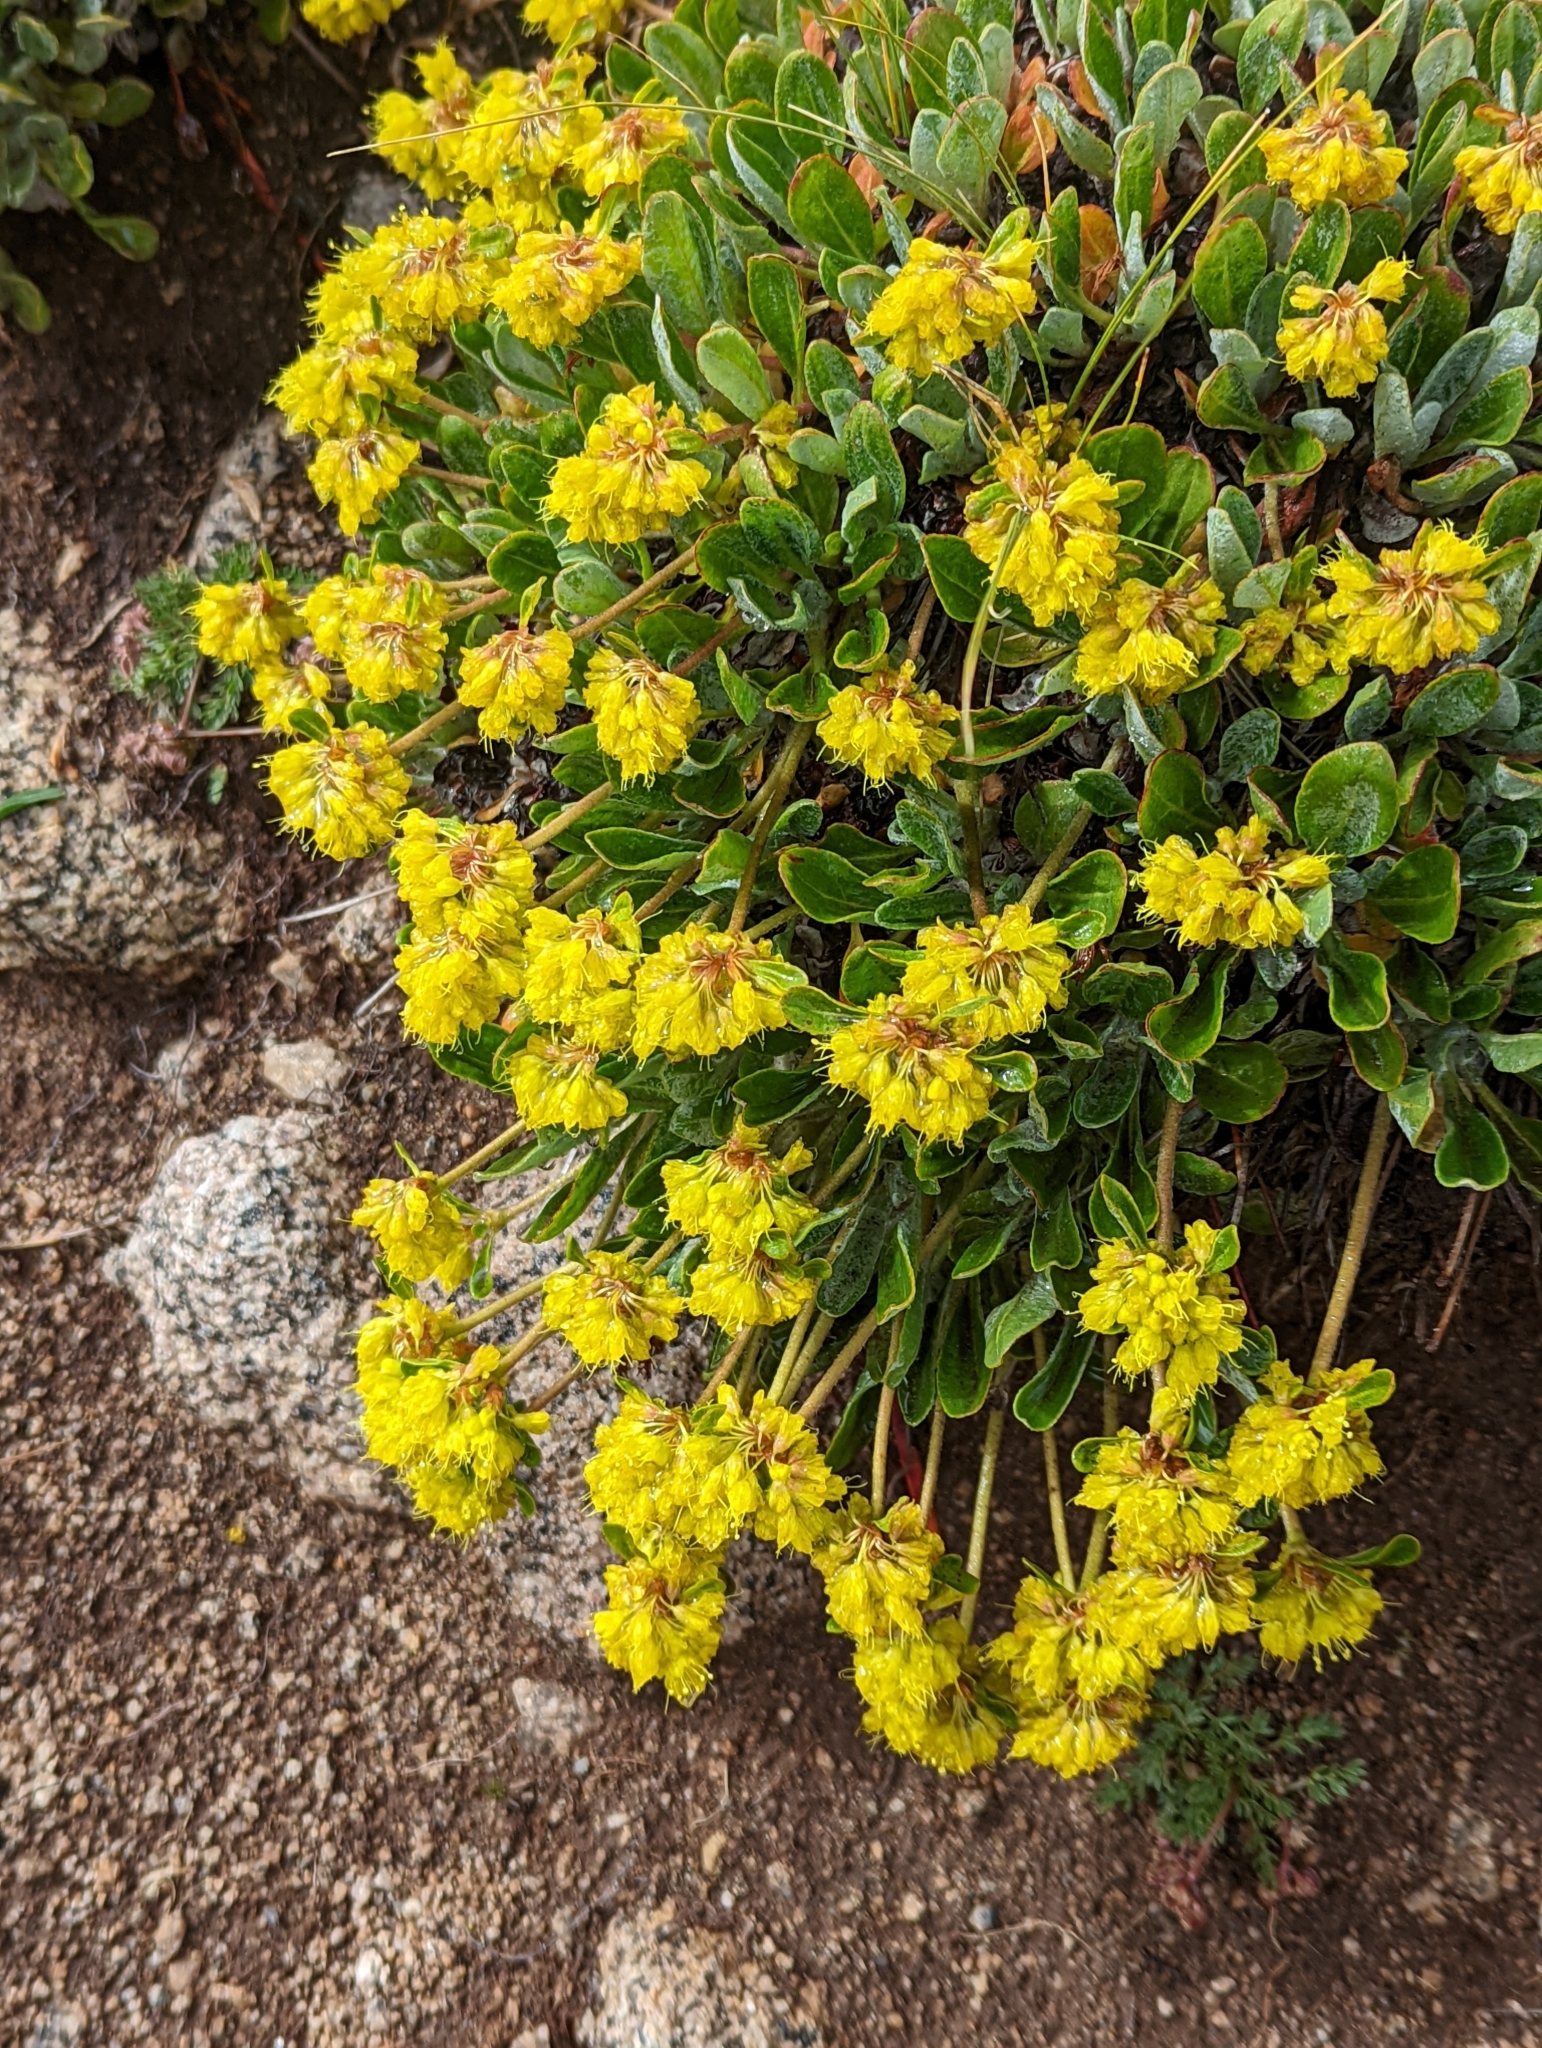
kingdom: Plantae
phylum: Tracheophyta
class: Magnoliopsida
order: Caryophyllales
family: Polygonaceae
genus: Eriogonum
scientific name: Eriogonum umbellatum
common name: Sulfur-buckwheat
